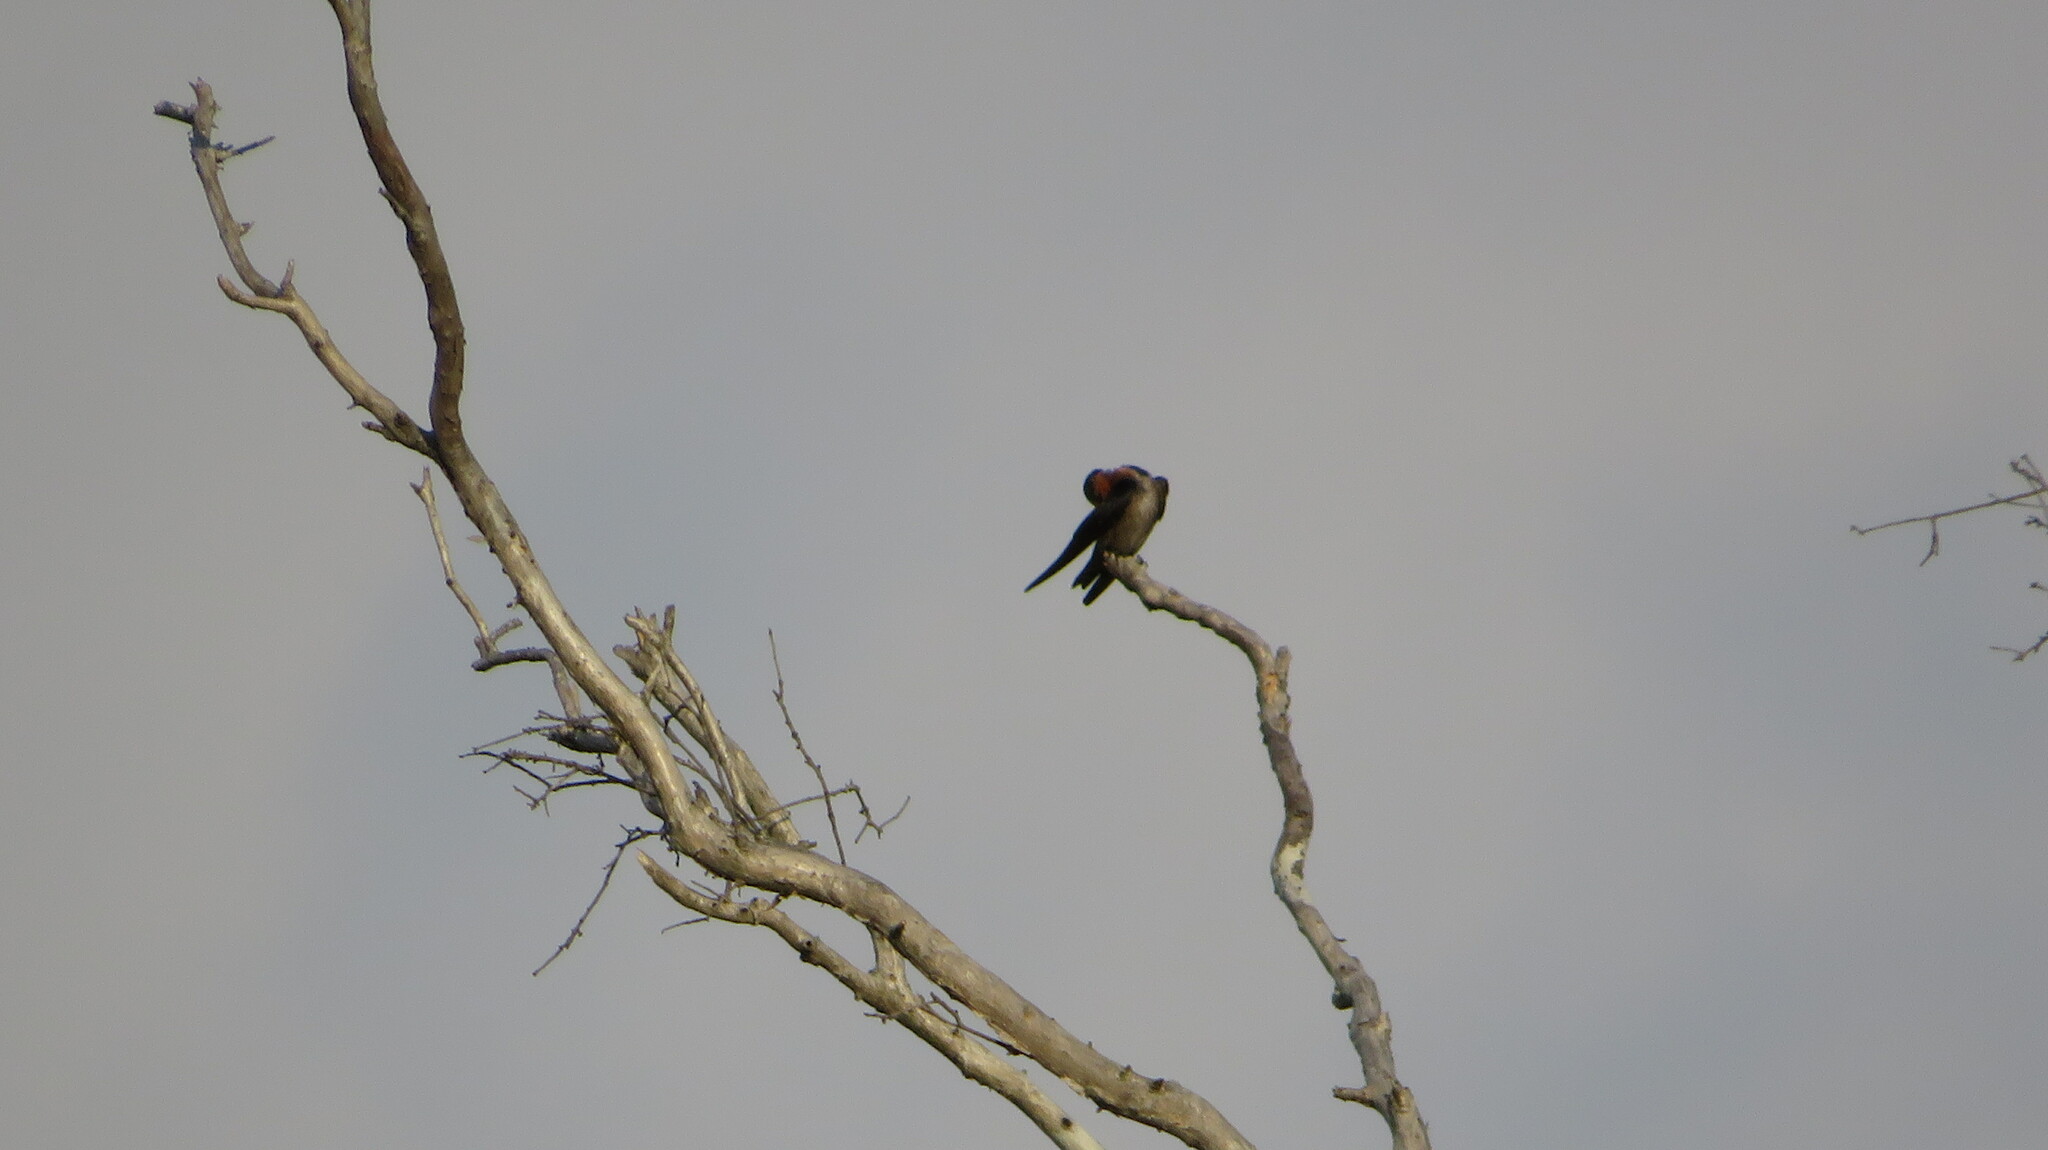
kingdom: Animalia
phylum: Chordata
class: Aves
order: Passeriformes
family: Hirundinidae
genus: Hirundo
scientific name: Hirundo tahitica
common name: Pacific swallow
